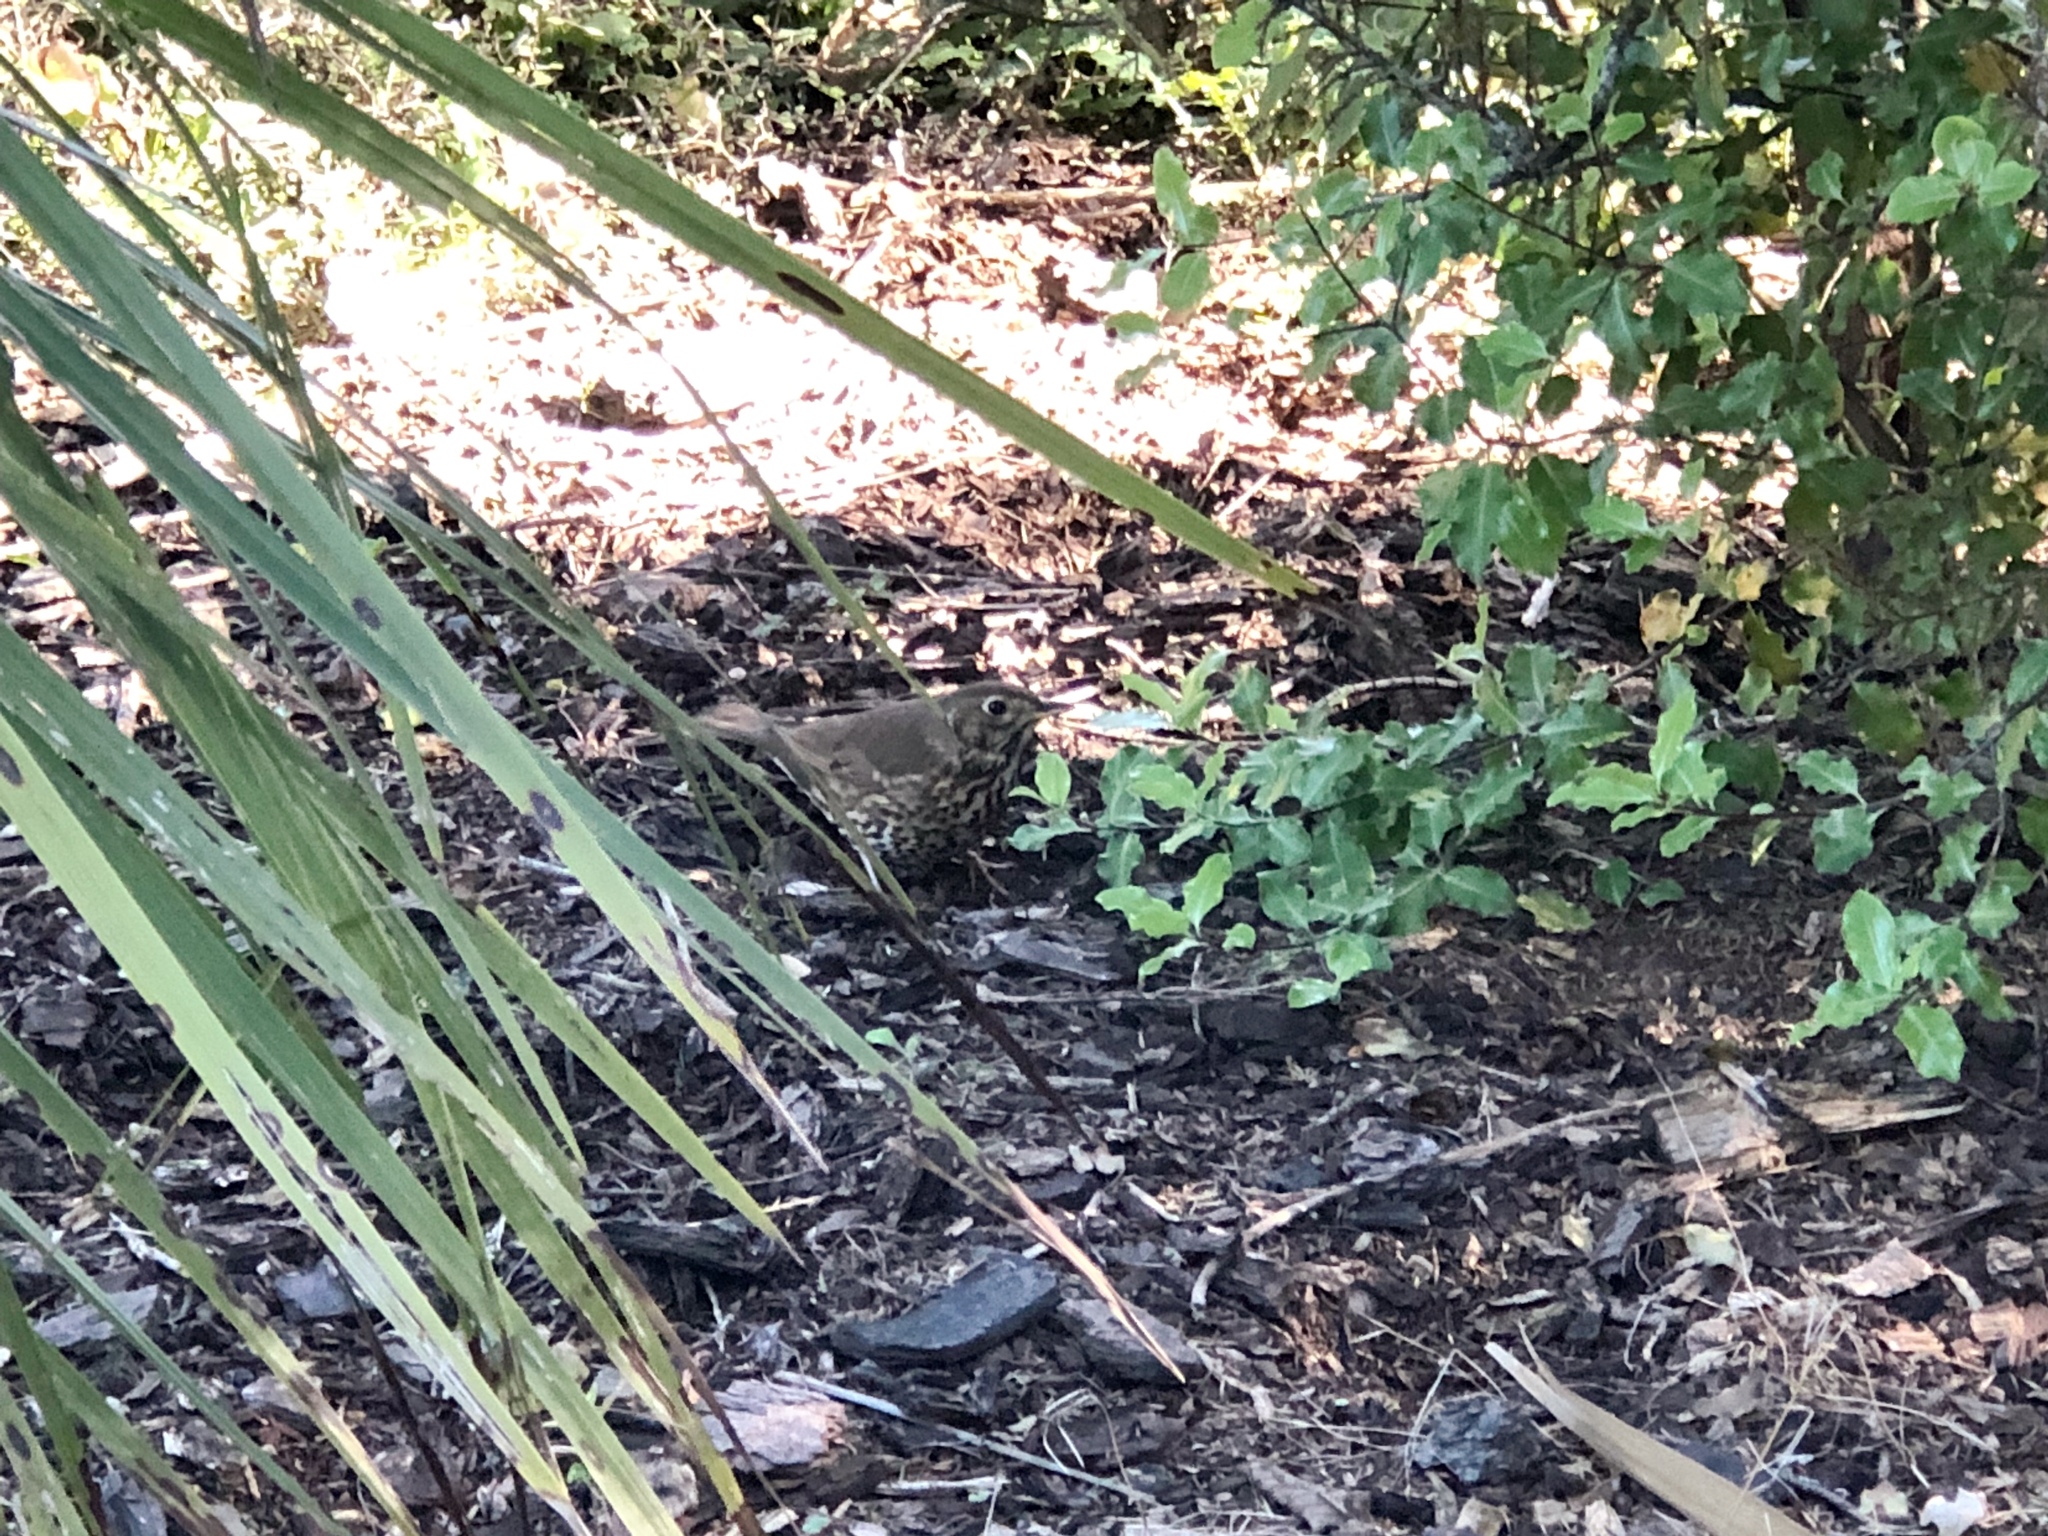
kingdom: Animalia
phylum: Chordata
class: Aves
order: Passeriformes
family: Turdidae
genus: Turdus
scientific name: Turdus philomelos
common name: Song thrush
